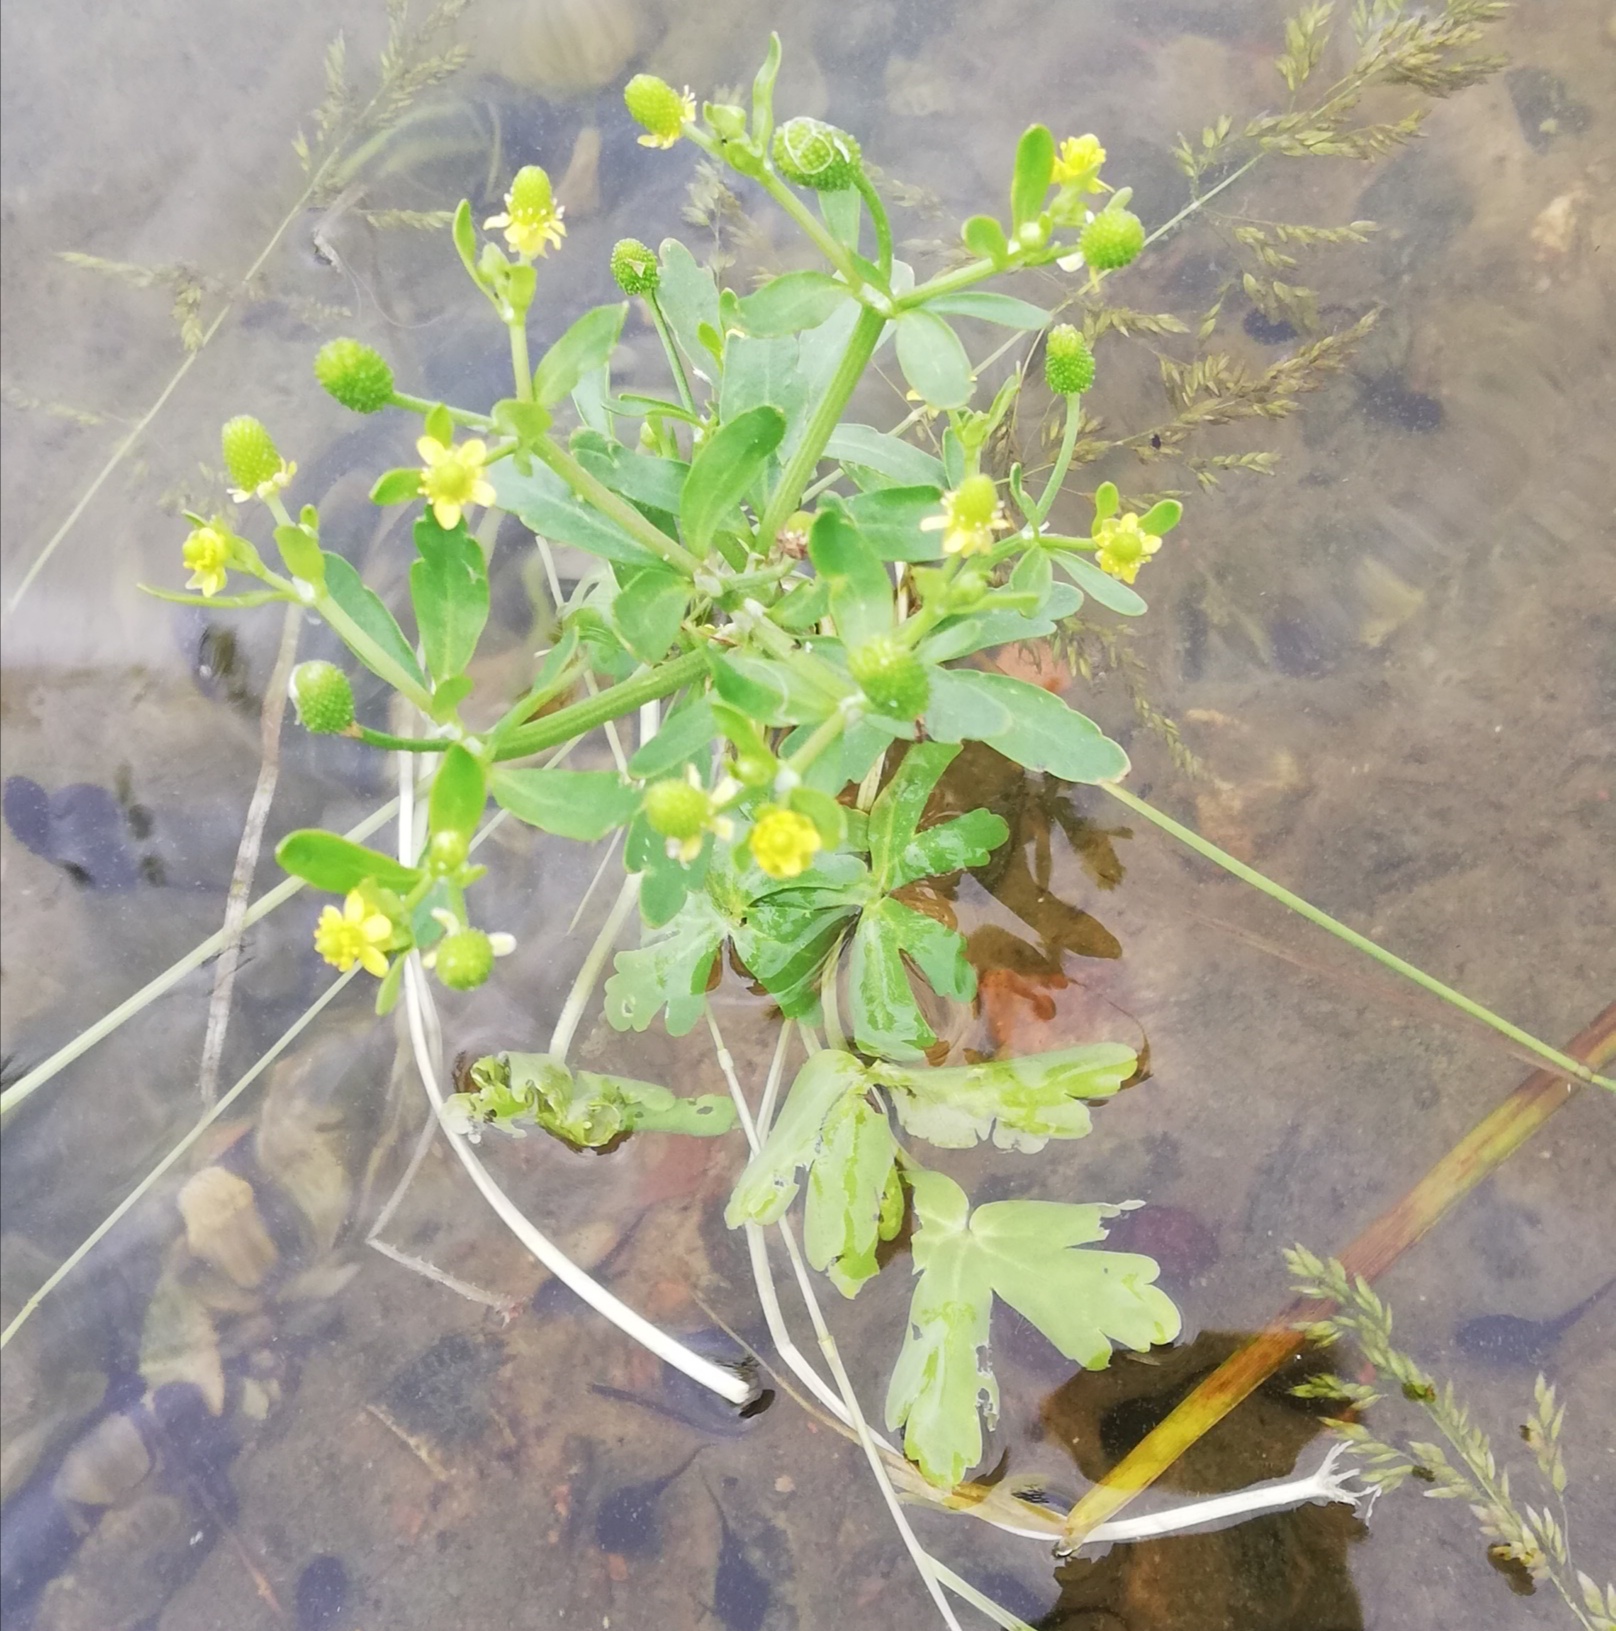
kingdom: Plantae
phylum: Tracheophyta
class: Magnoliopsida
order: Ranunculales
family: Ranunculaceae
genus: Ranunculus
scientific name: Ranunculus sceleratus
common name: Celery-leaved buttercup
